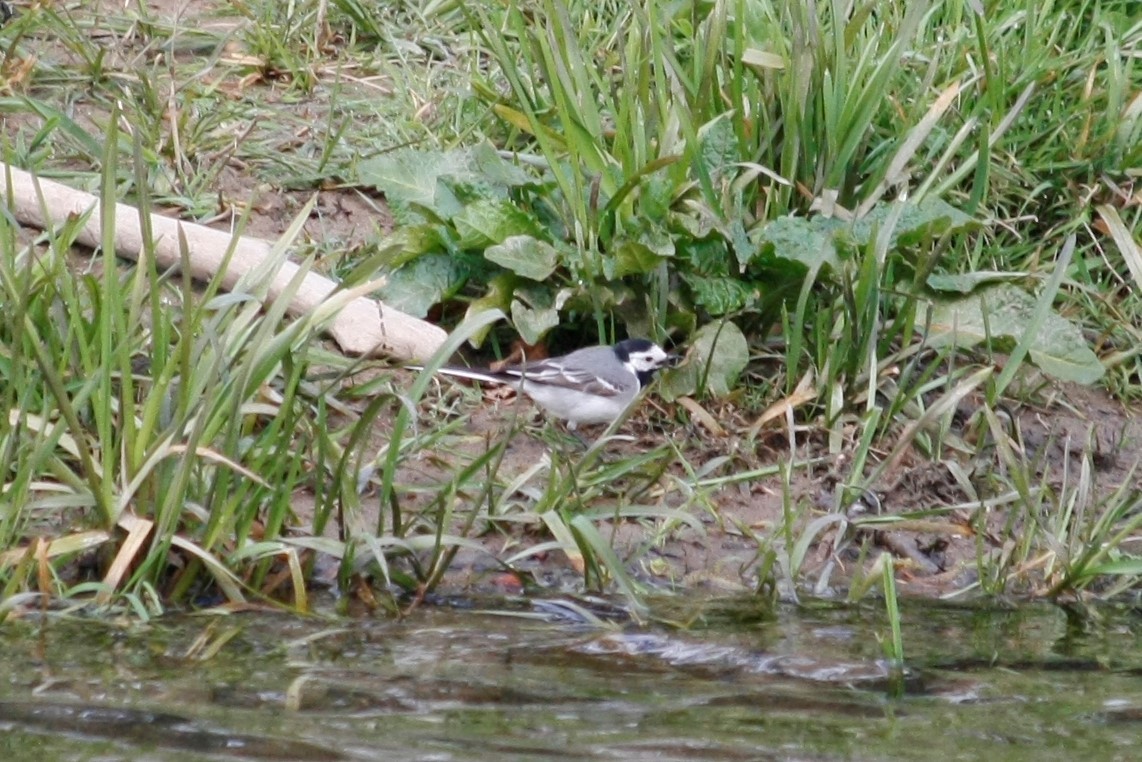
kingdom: Animalia
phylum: Chordata
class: Aves
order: Passeriformes
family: Motacillidae
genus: Motacilla
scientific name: Motacilla alba
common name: White wagtail
